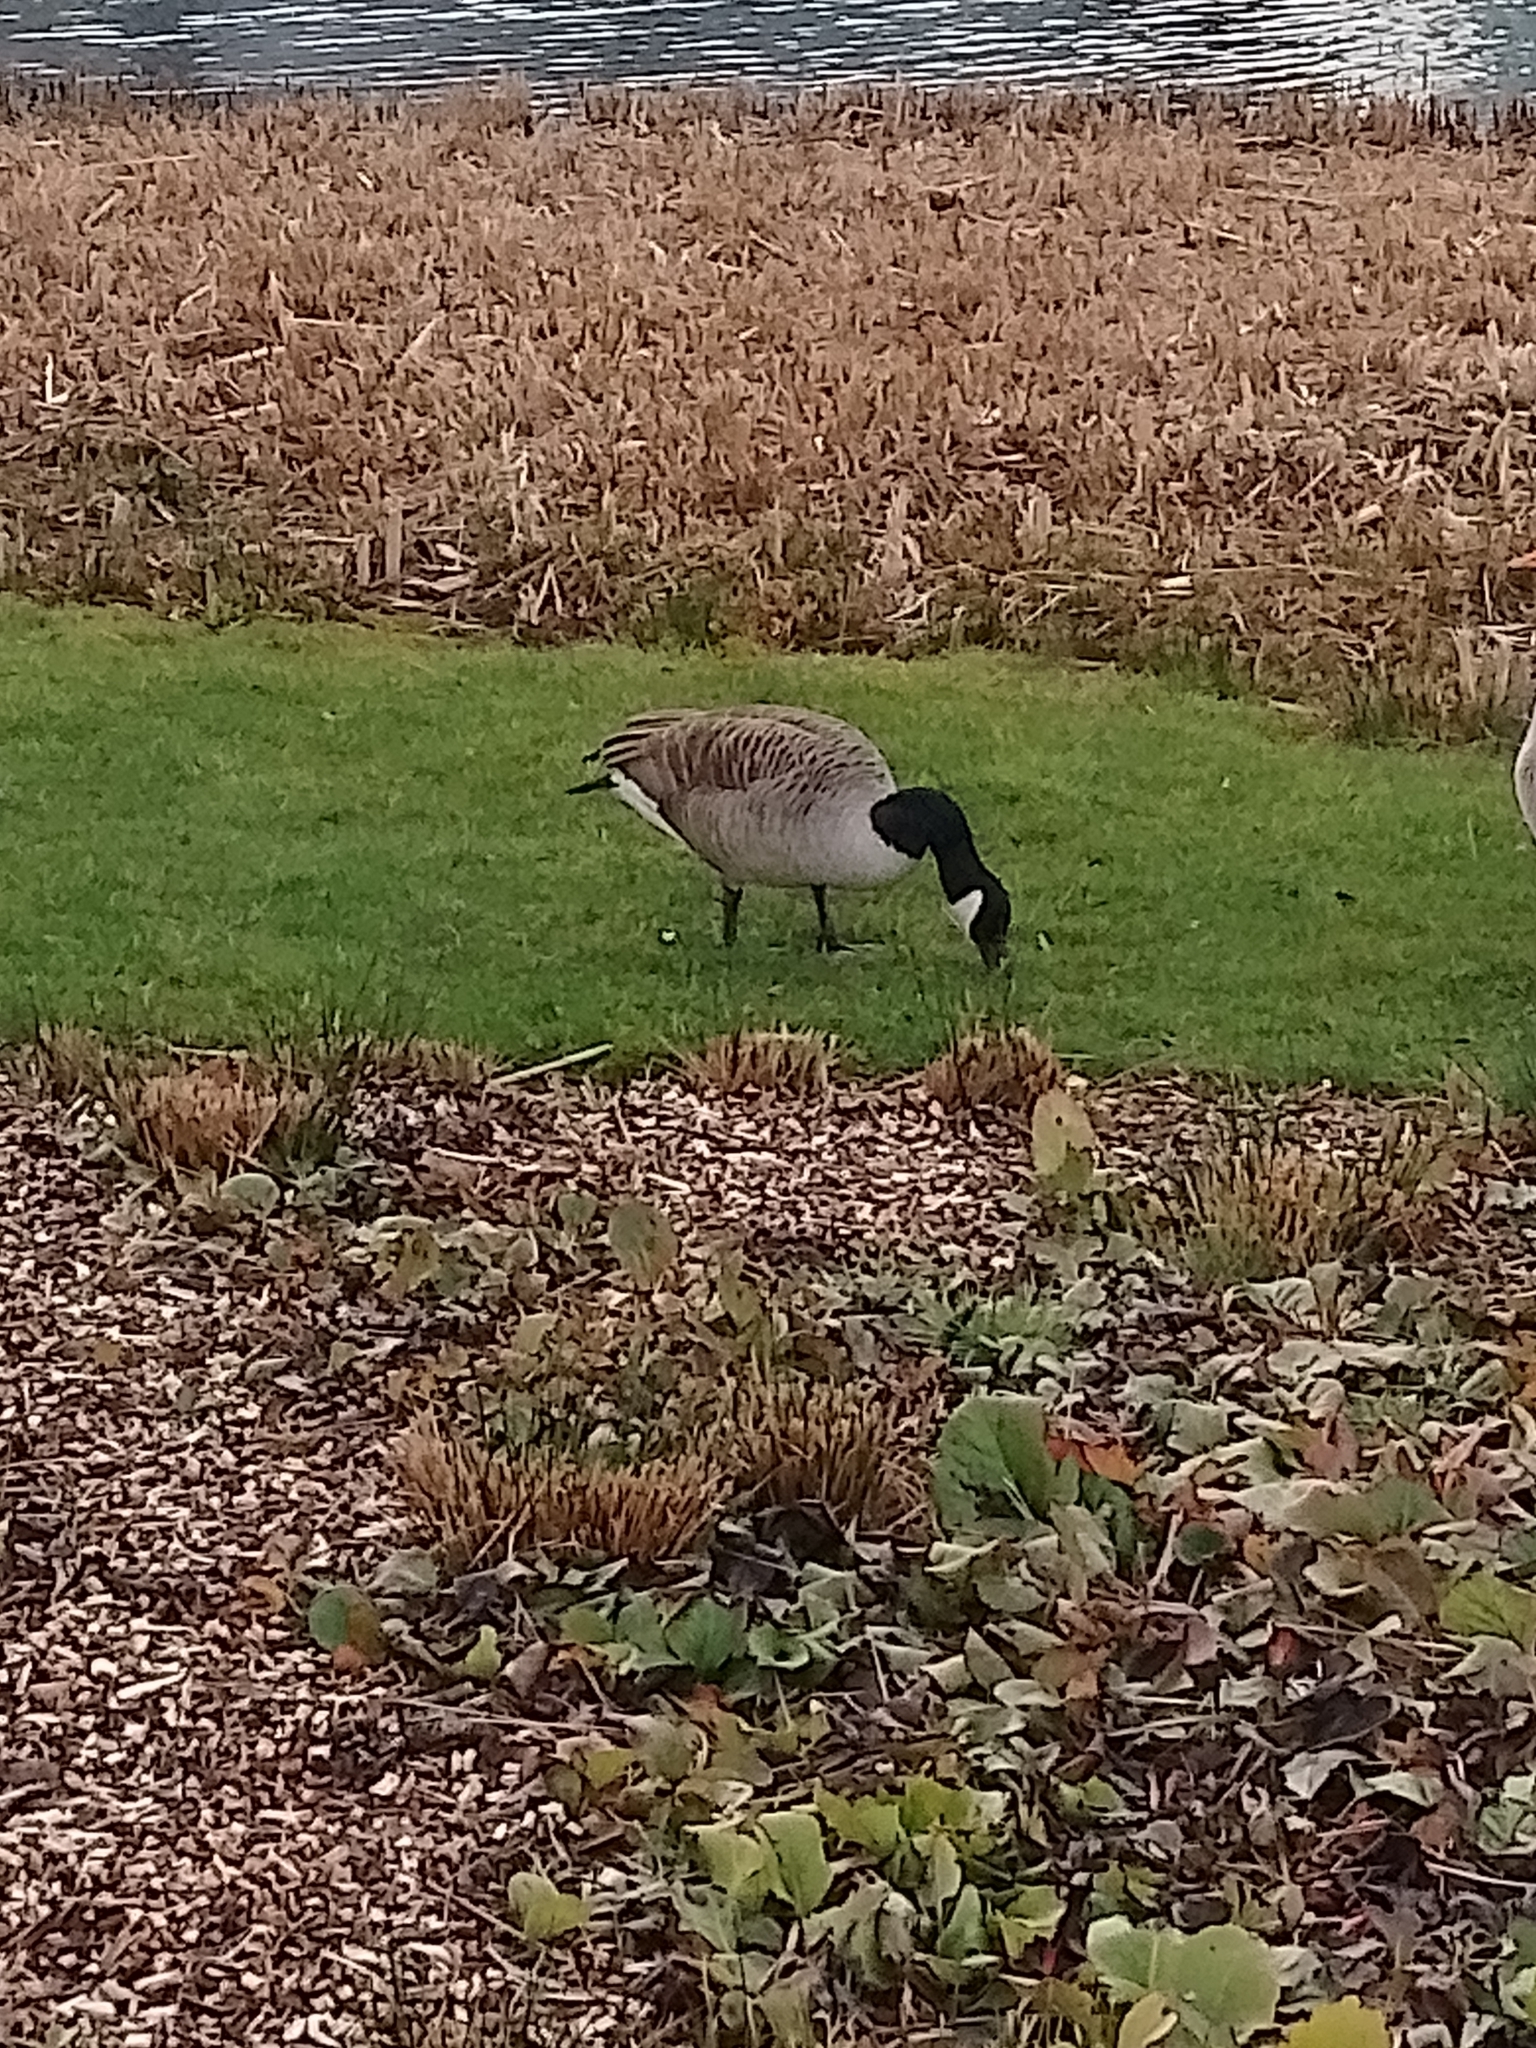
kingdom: Animalia
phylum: Chordata
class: Aves
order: Anseriformes
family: Anatidae
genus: Branta
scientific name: Branta canadensis
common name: Canada goose
